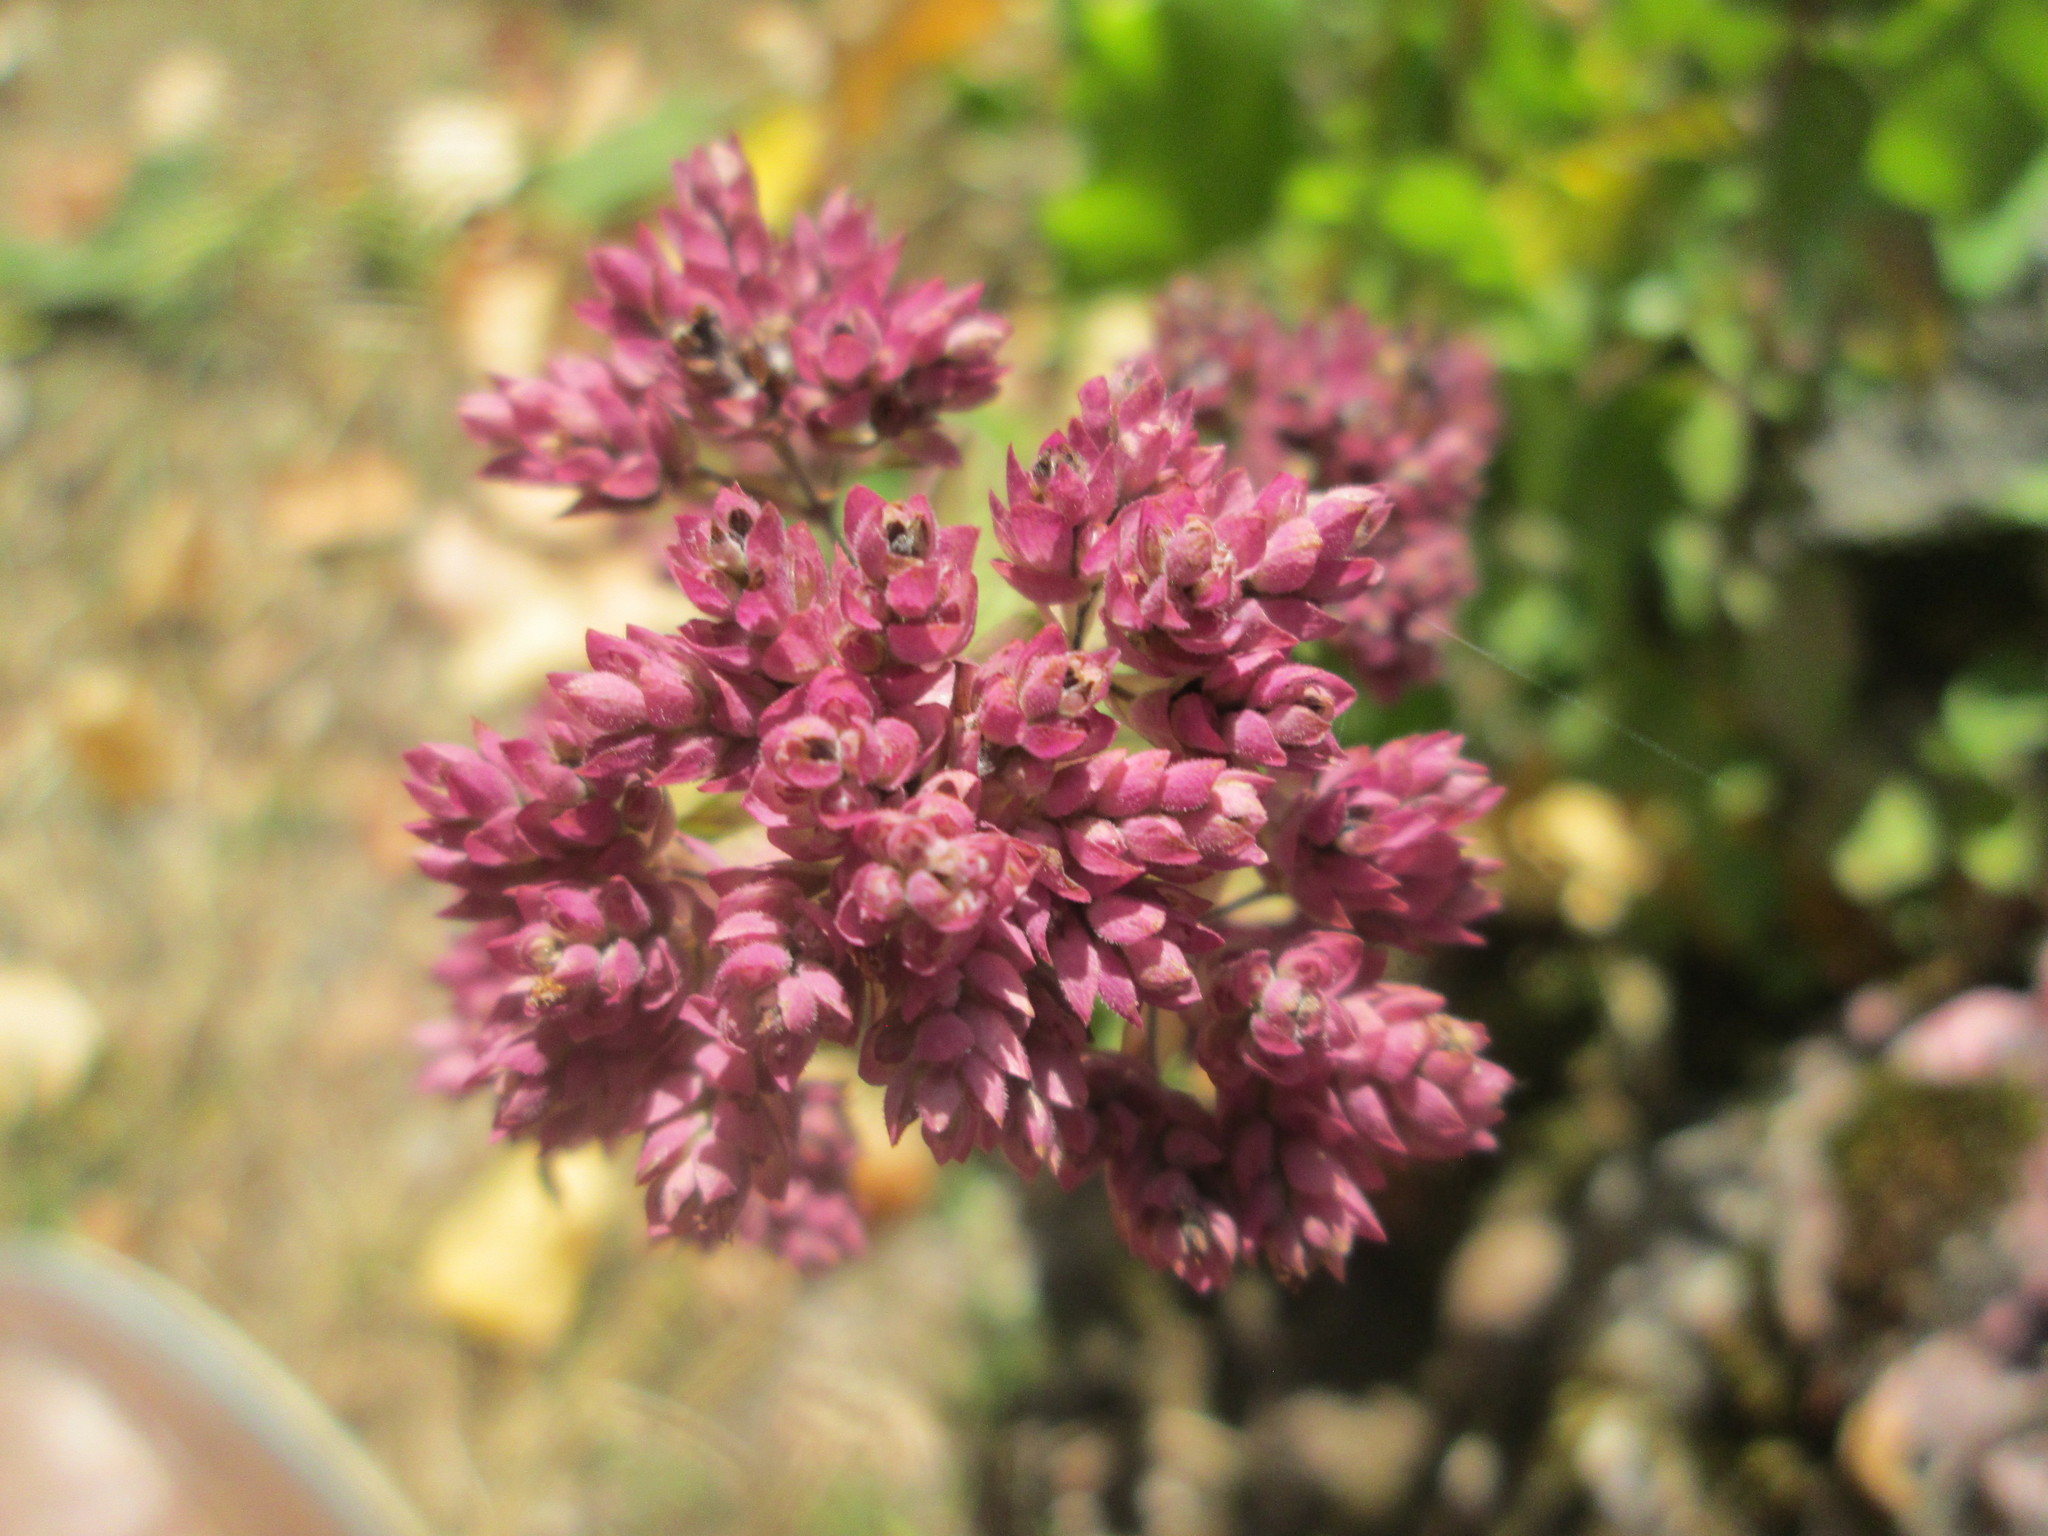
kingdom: Plantae
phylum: Tracheophyta
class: Magnoliopsida
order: Lamiales
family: Lamiaceae
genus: Origanum
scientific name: Origanum vulgare
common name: Wild marjoram
